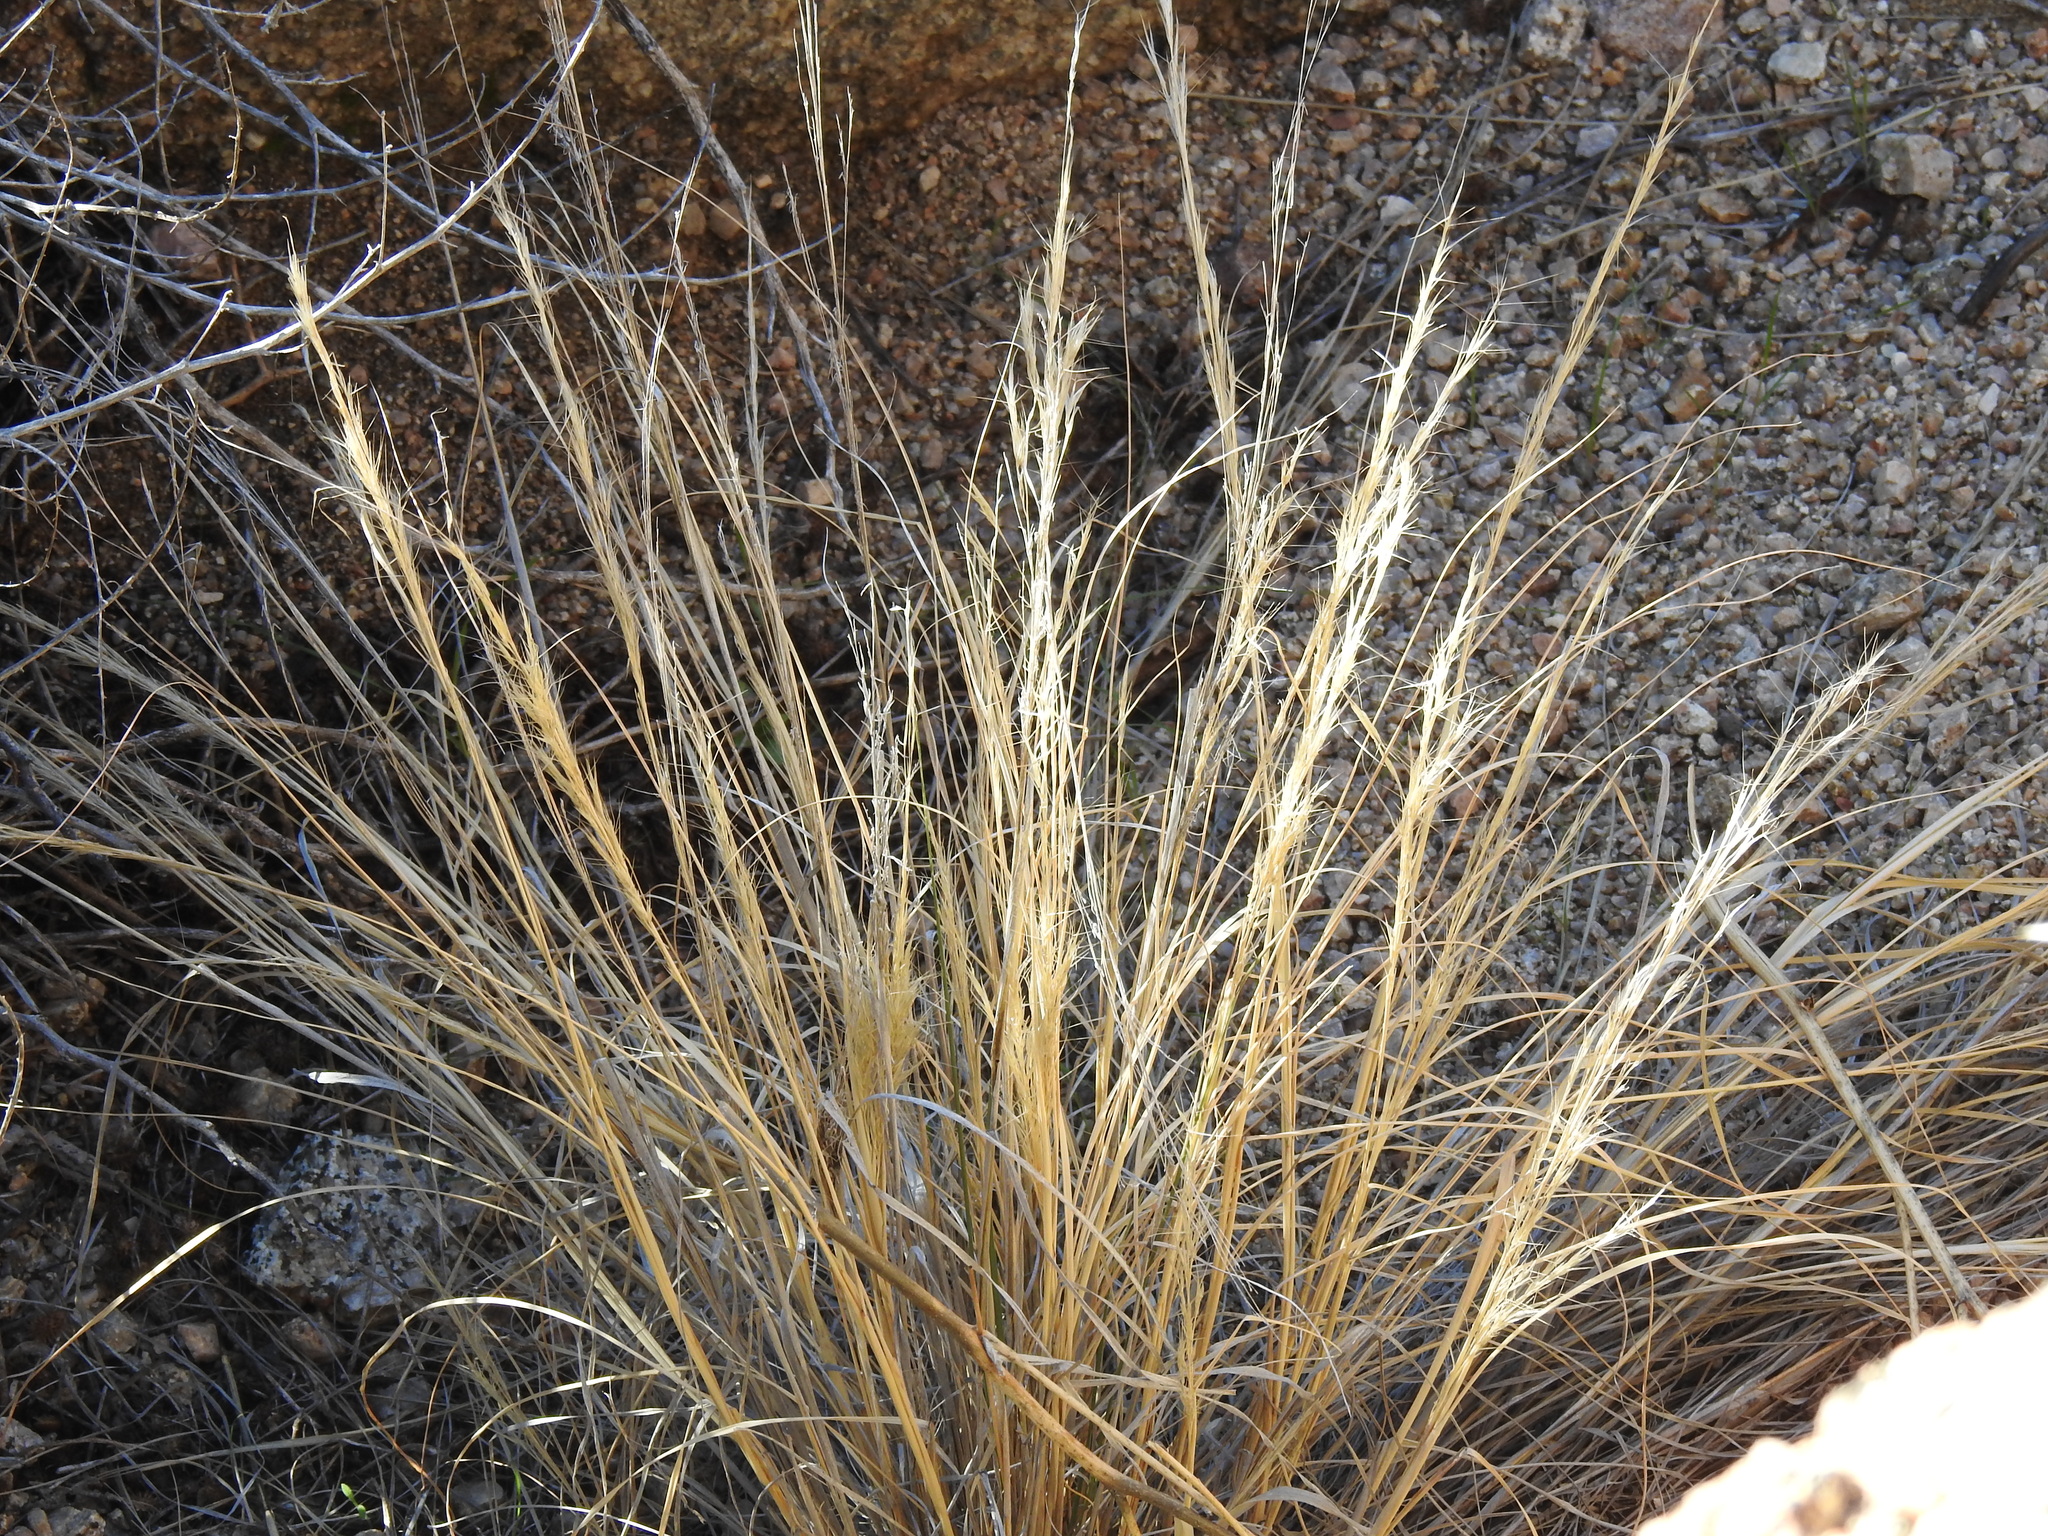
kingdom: Plantae
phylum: Tracheophyta
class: Liliopsida
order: Poales
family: Poaceae
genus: Aristida
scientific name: Aristida adscensionis
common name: Sixweeks threeawn
